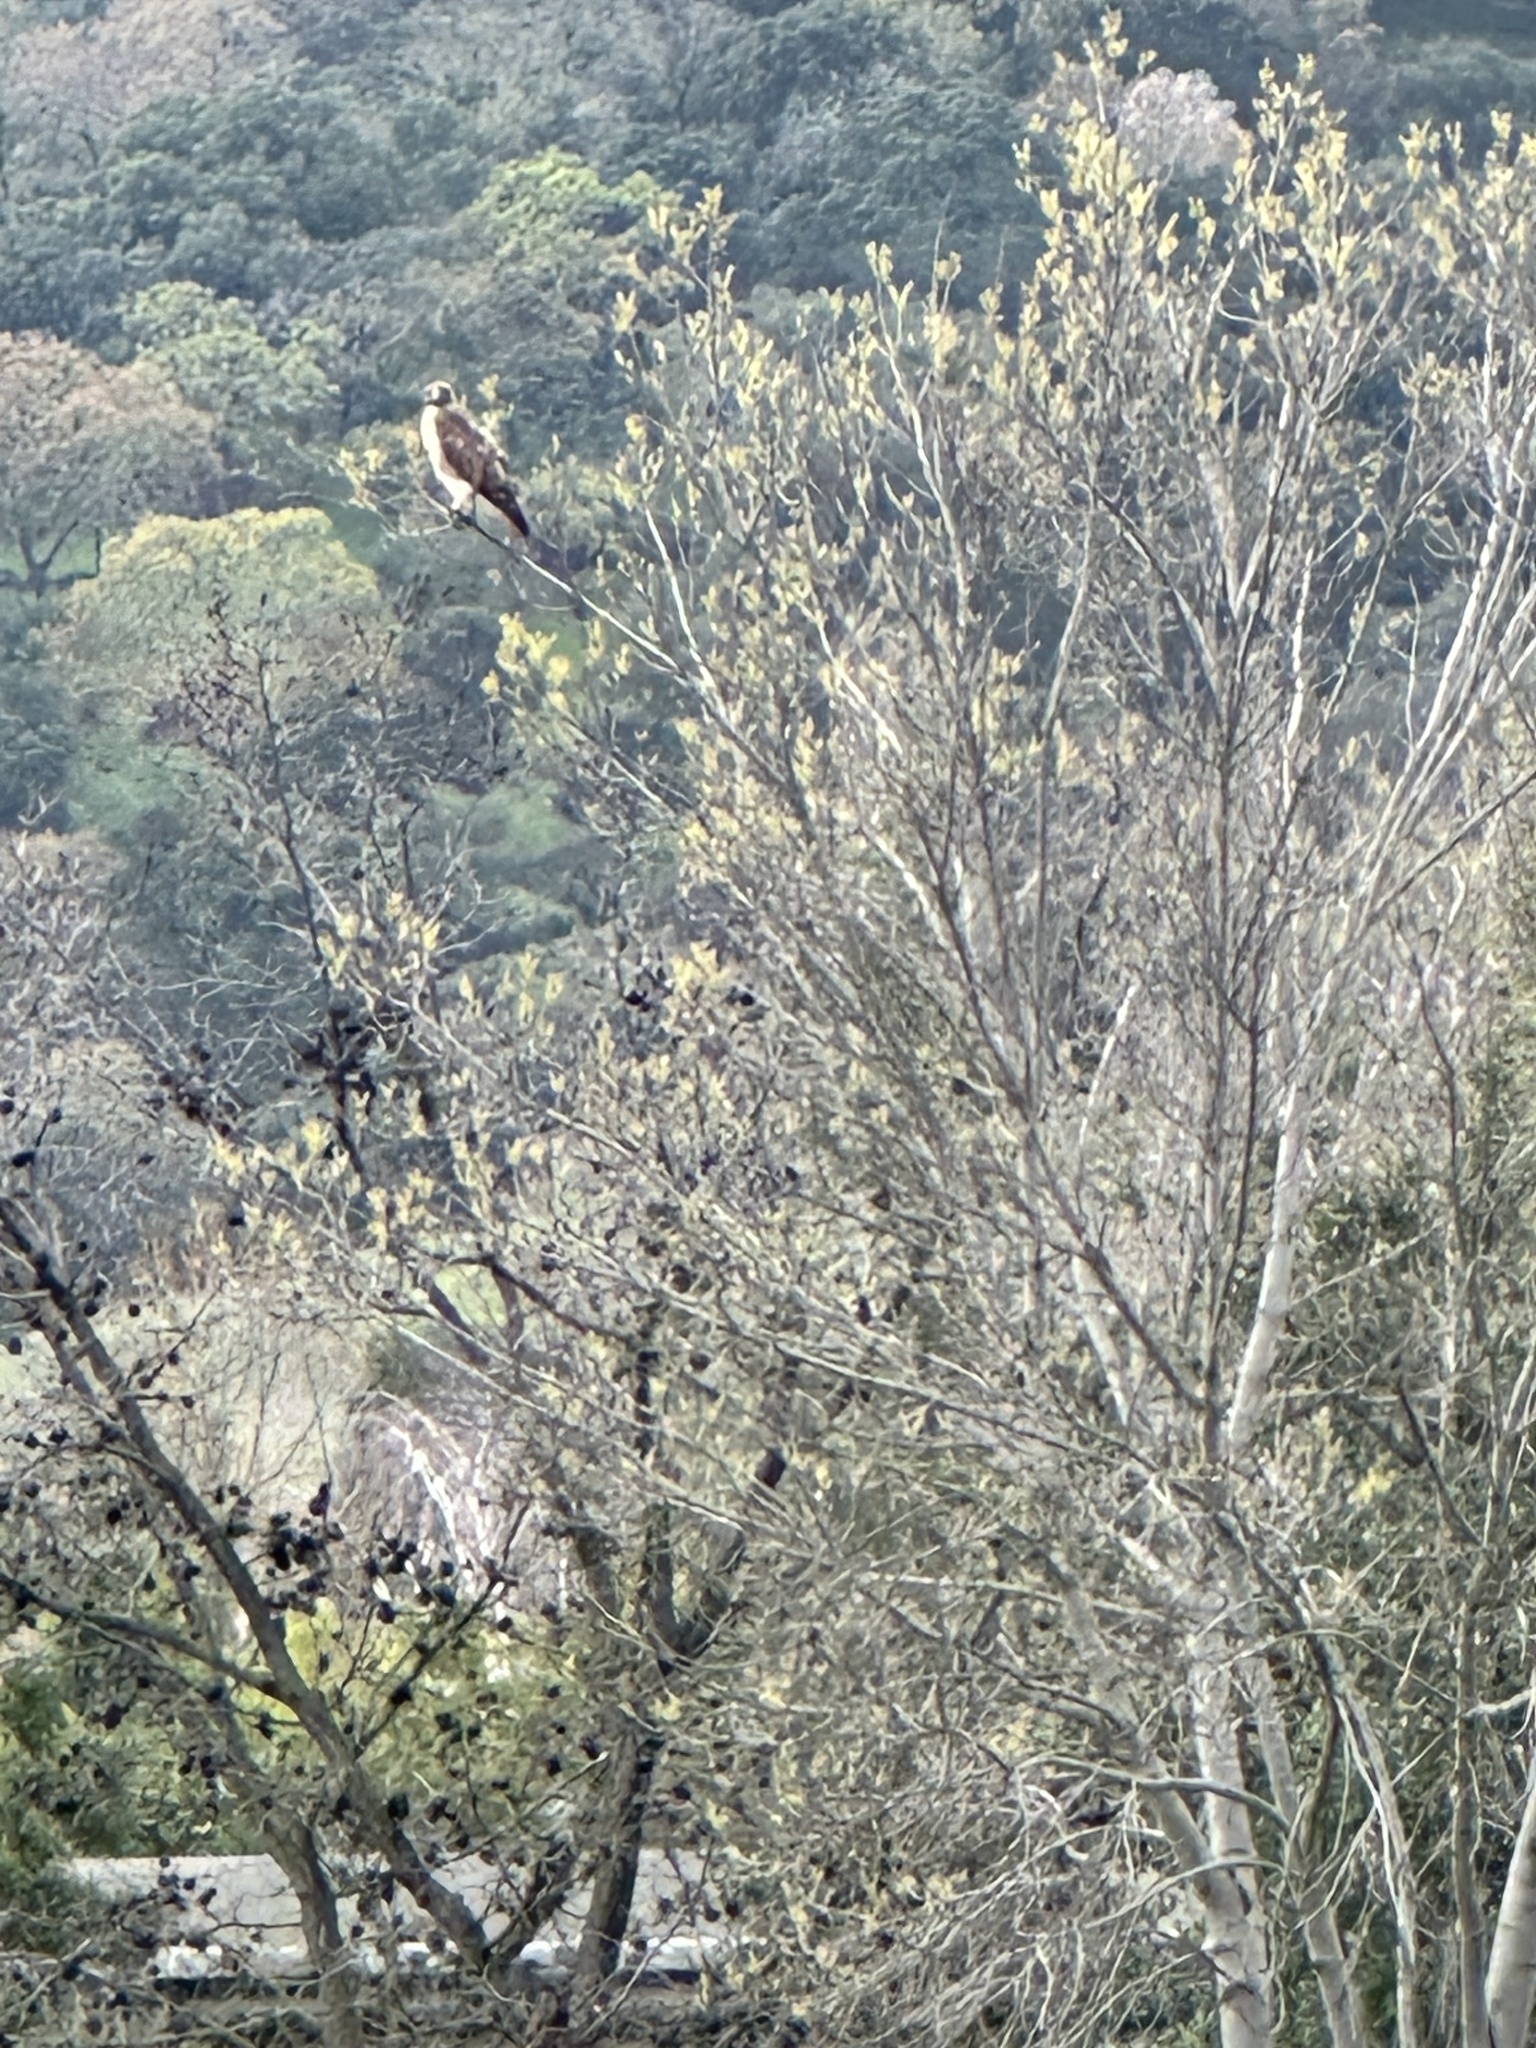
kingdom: Animalia
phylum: Chordata
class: Aves
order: Accipitriformes
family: Accipitridae
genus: Buteo
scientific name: Buteo jamaicensis
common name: Red-tailed hawk
